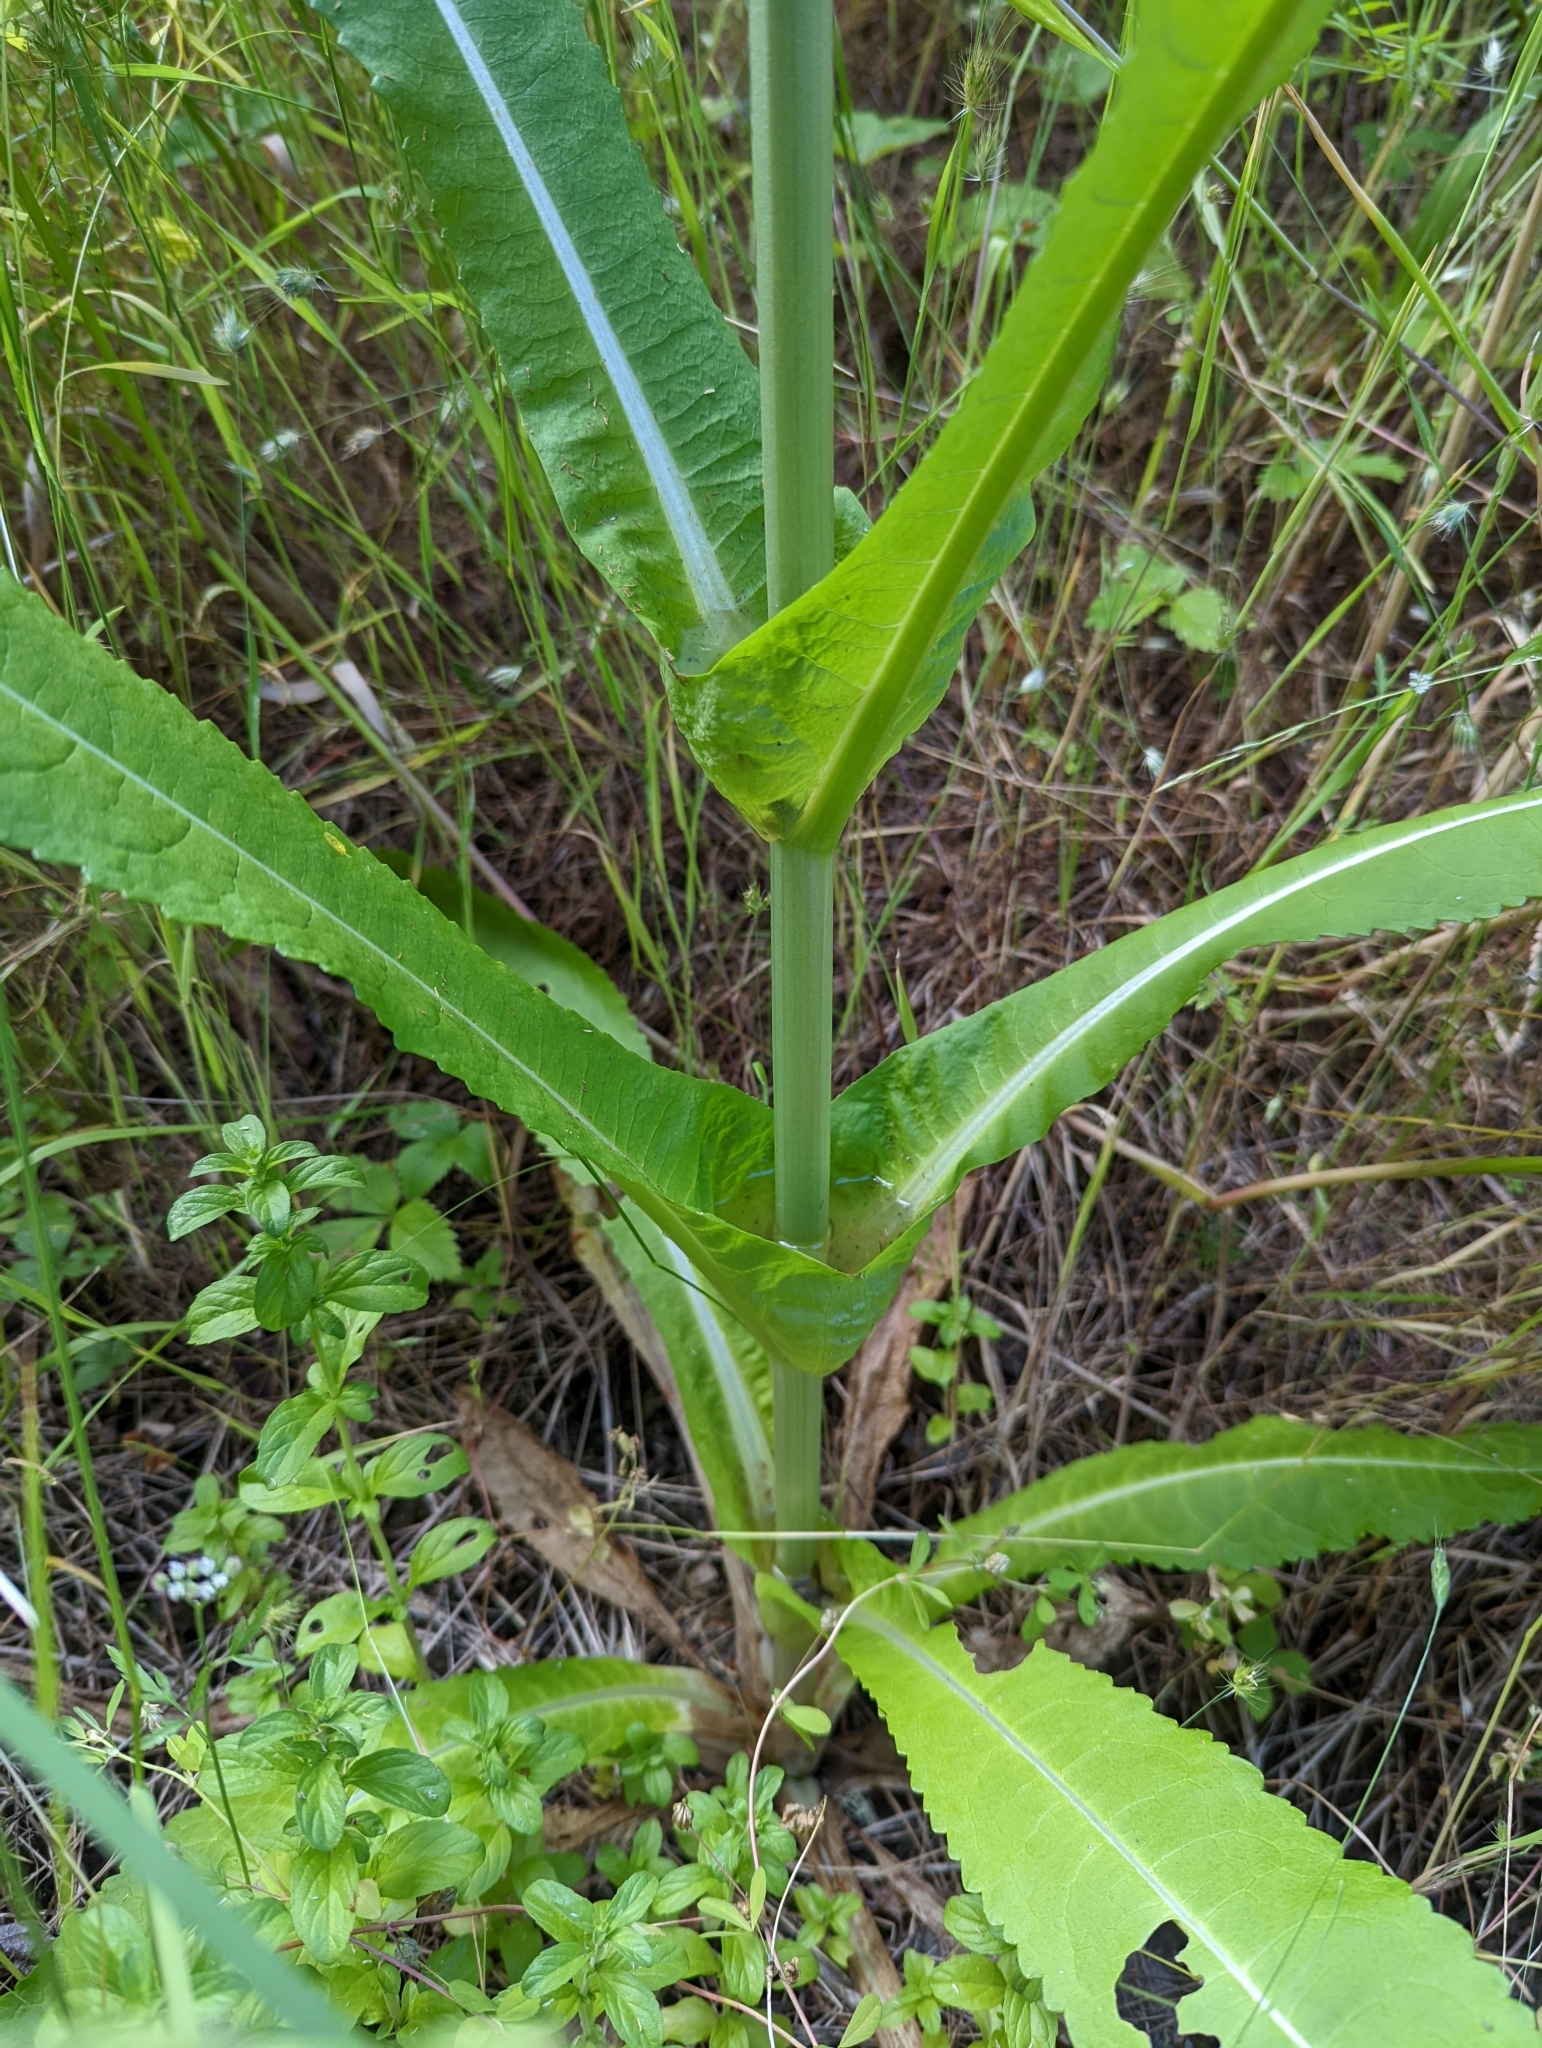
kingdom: Plantae
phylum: Tracheophyta
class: Magnoliopsida
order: Dipsacales
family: Caprifoliaceae
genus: Dipsacus
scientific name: Dipsacus fullonum
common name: Teasel
